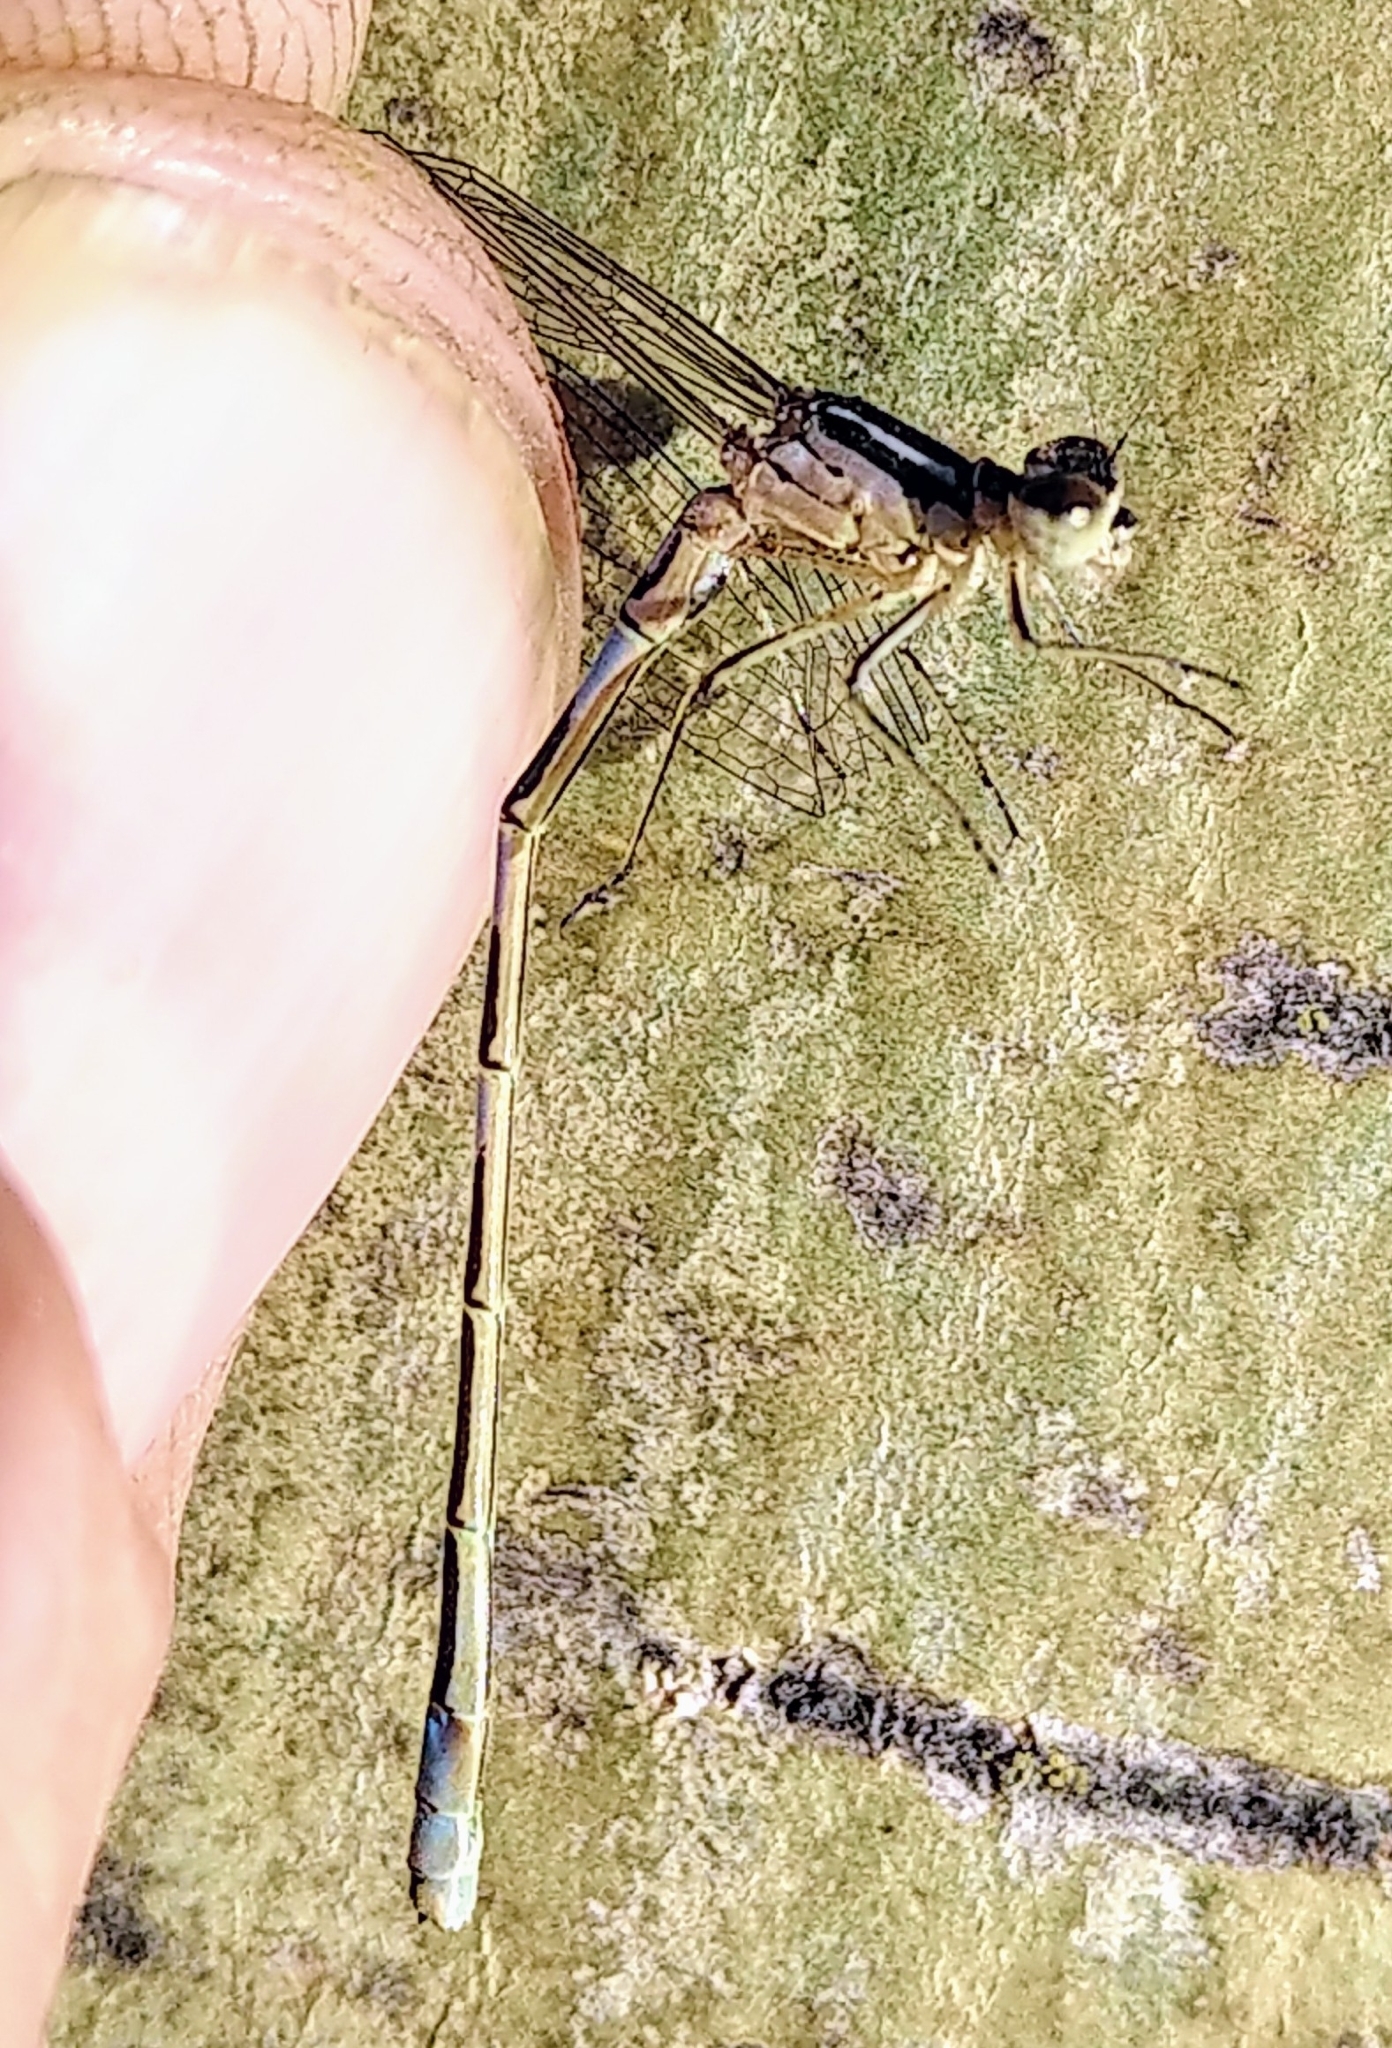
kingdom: Animalia
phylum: Arthropoda
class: Insecta
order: Odonata
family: Coenagrionidae
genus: Coenagrion
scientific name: Coenagrion resolutum
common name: Taiga bluet
